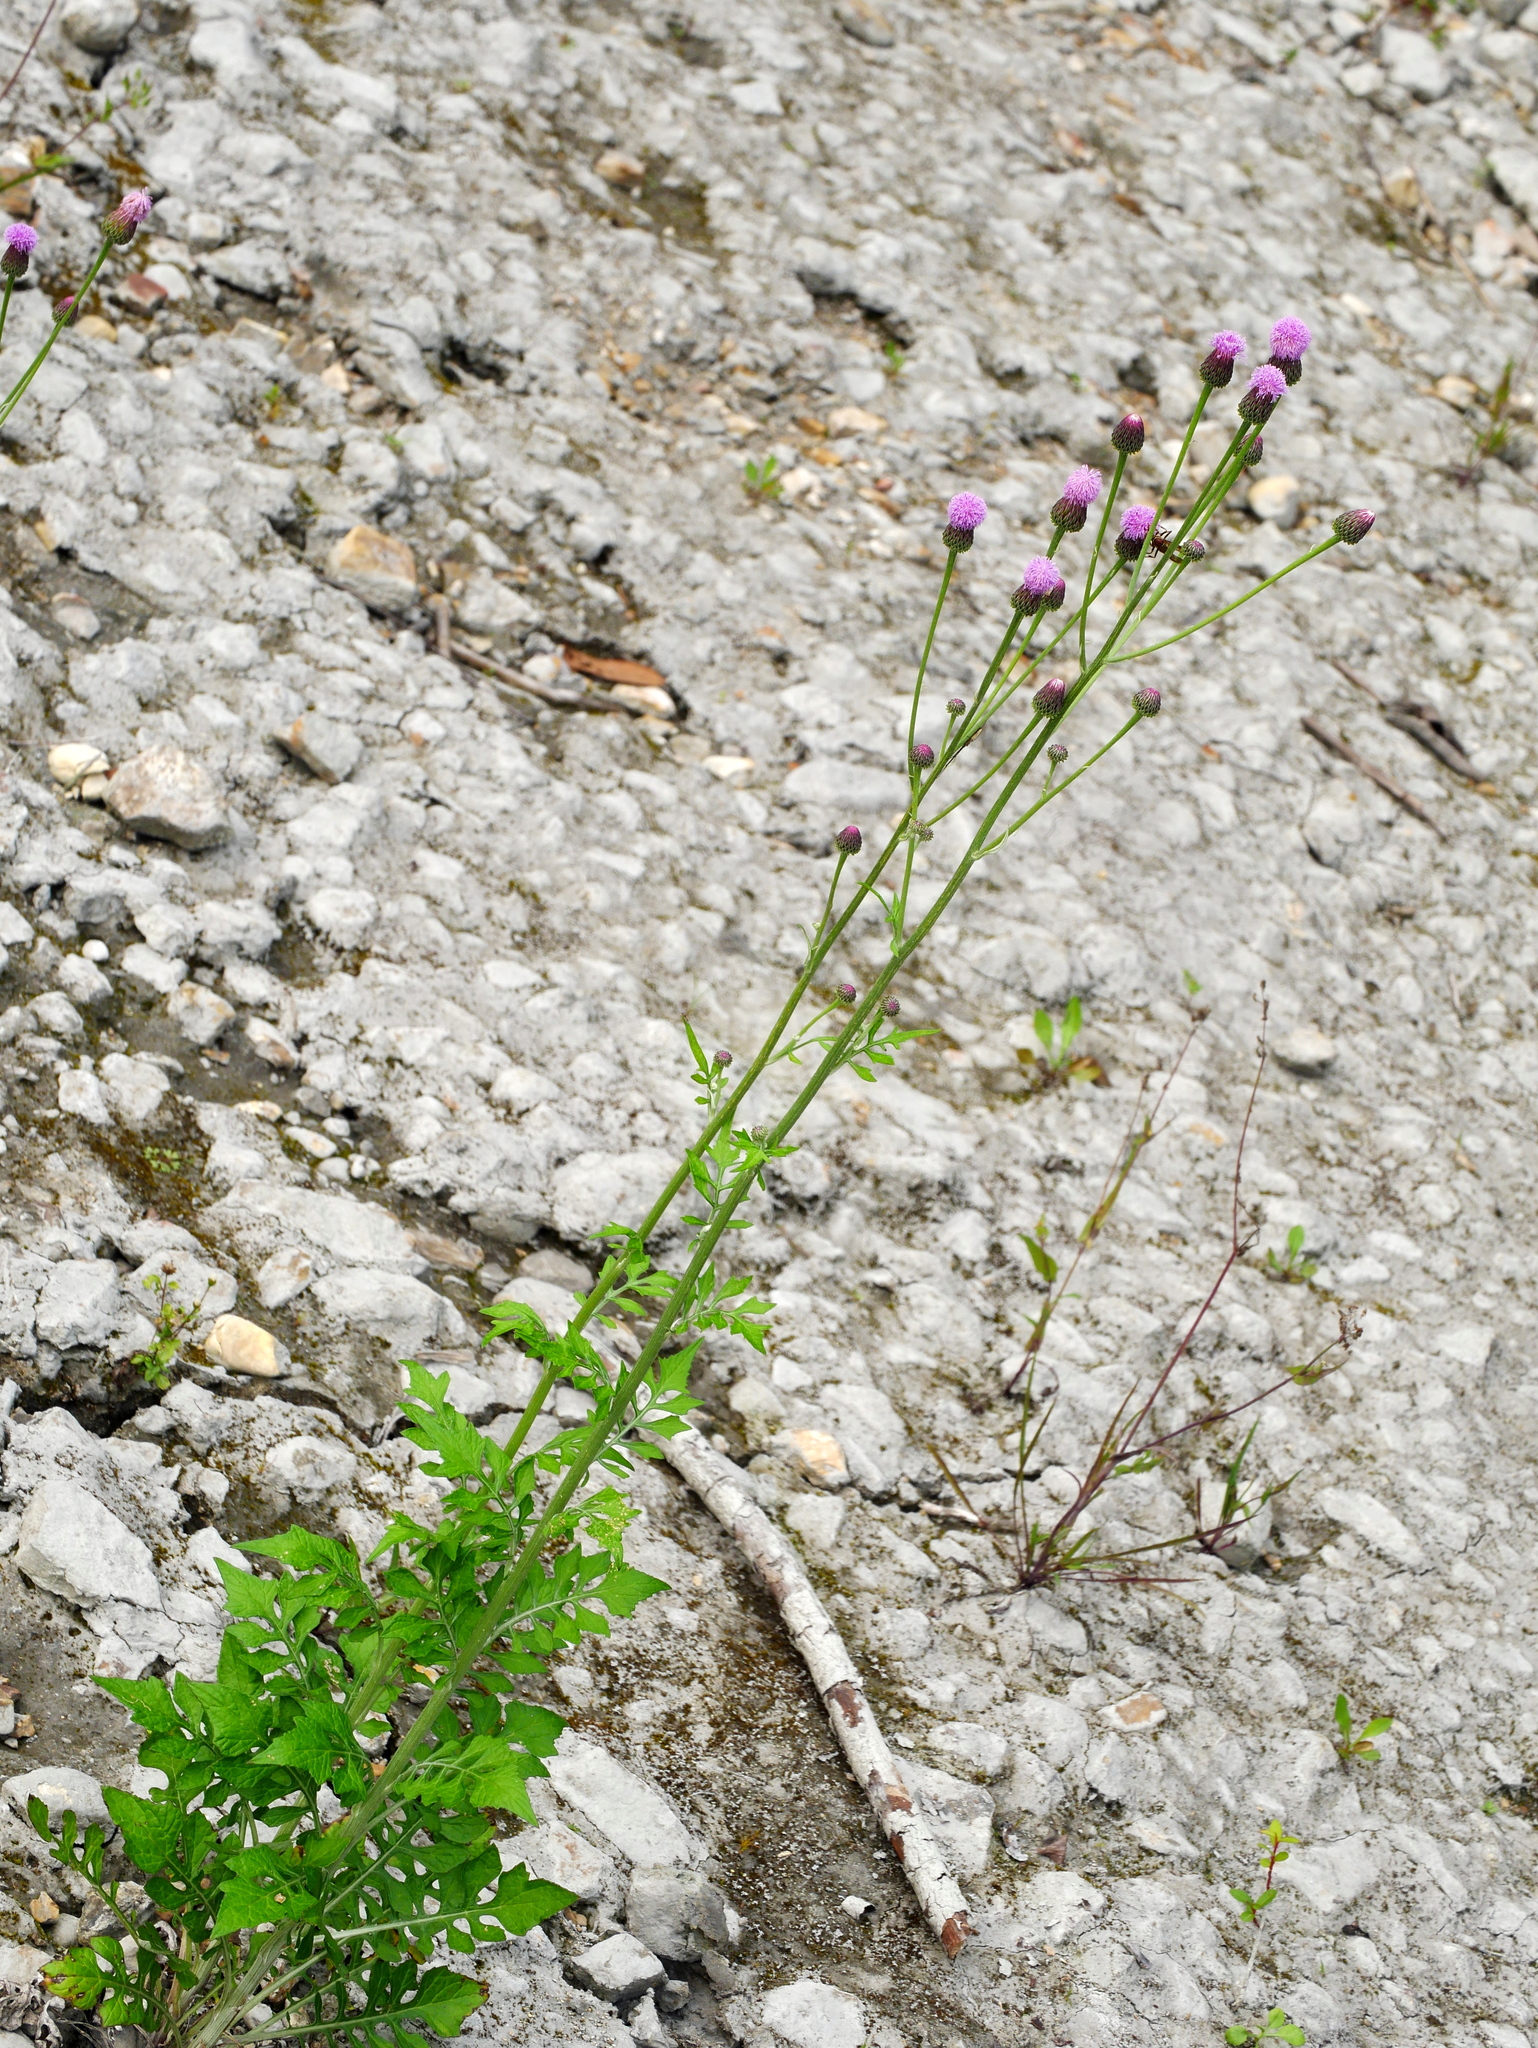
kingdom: Plantae
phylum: Tracheophyta
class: Magnoliopsida
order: Asterales
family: Asteraceae
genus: Saussurea
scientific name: Saussurea lyrata
